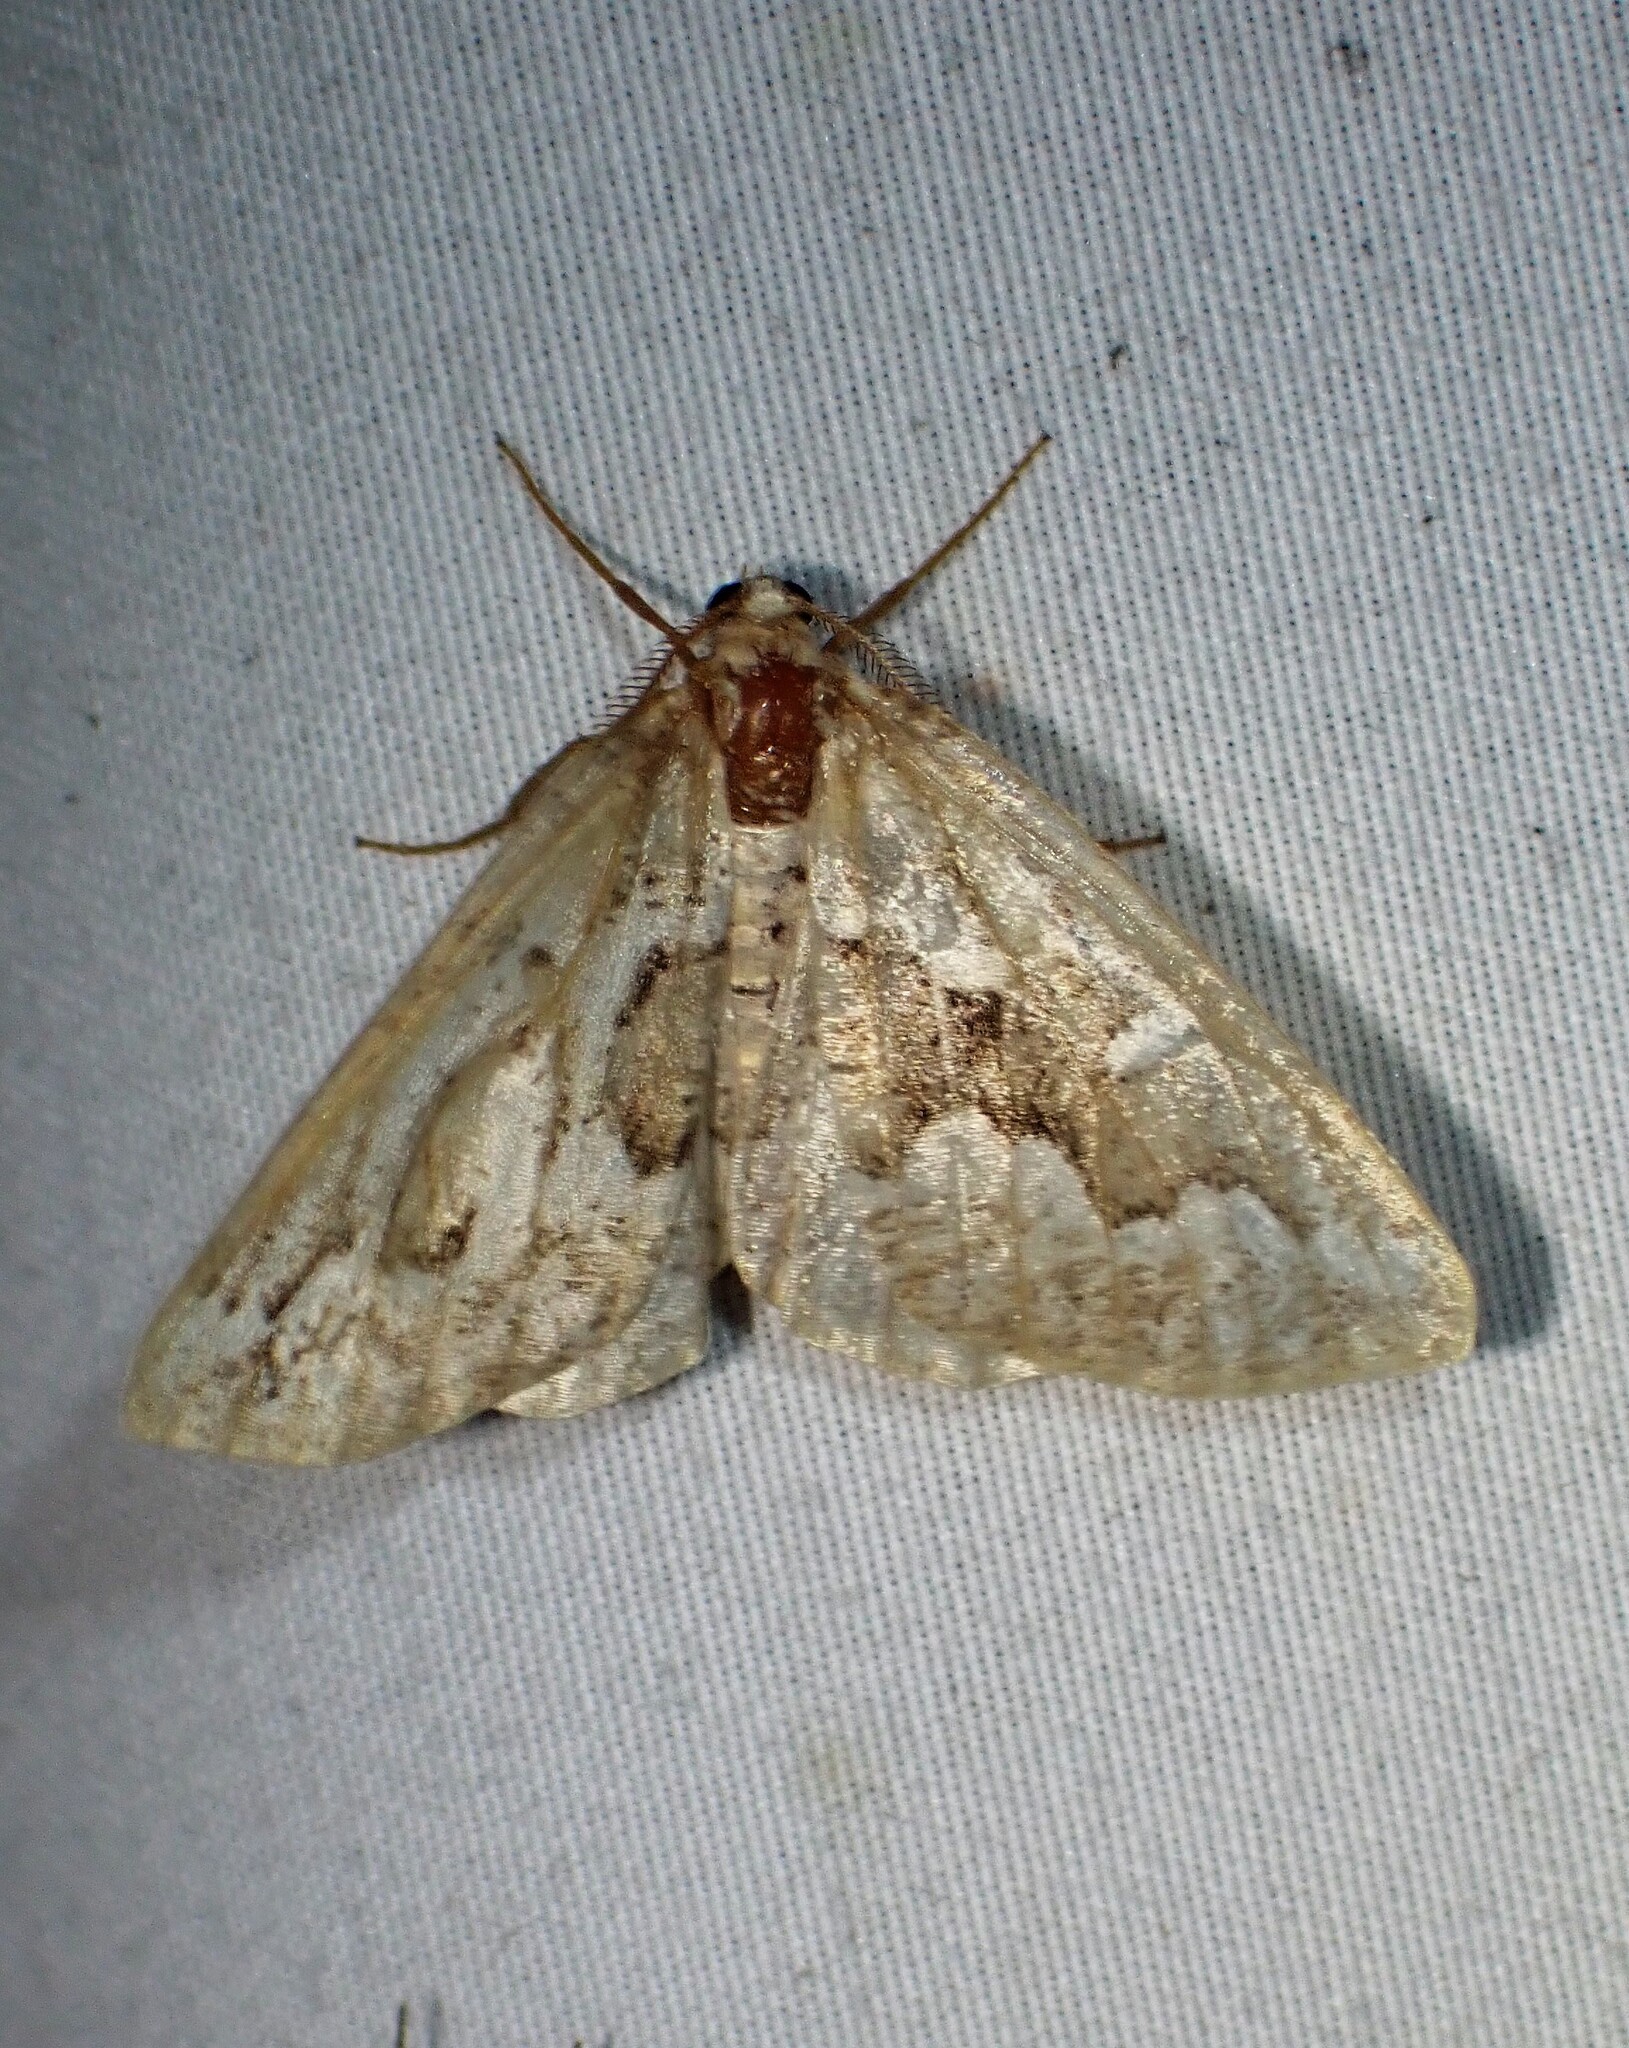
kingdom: Animalia
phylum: Arthropoda
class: Insecta
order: Lepidoptera
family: Geometridae
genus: Caripeta
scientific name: Caripeta divisata
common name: Gray spruce looper
